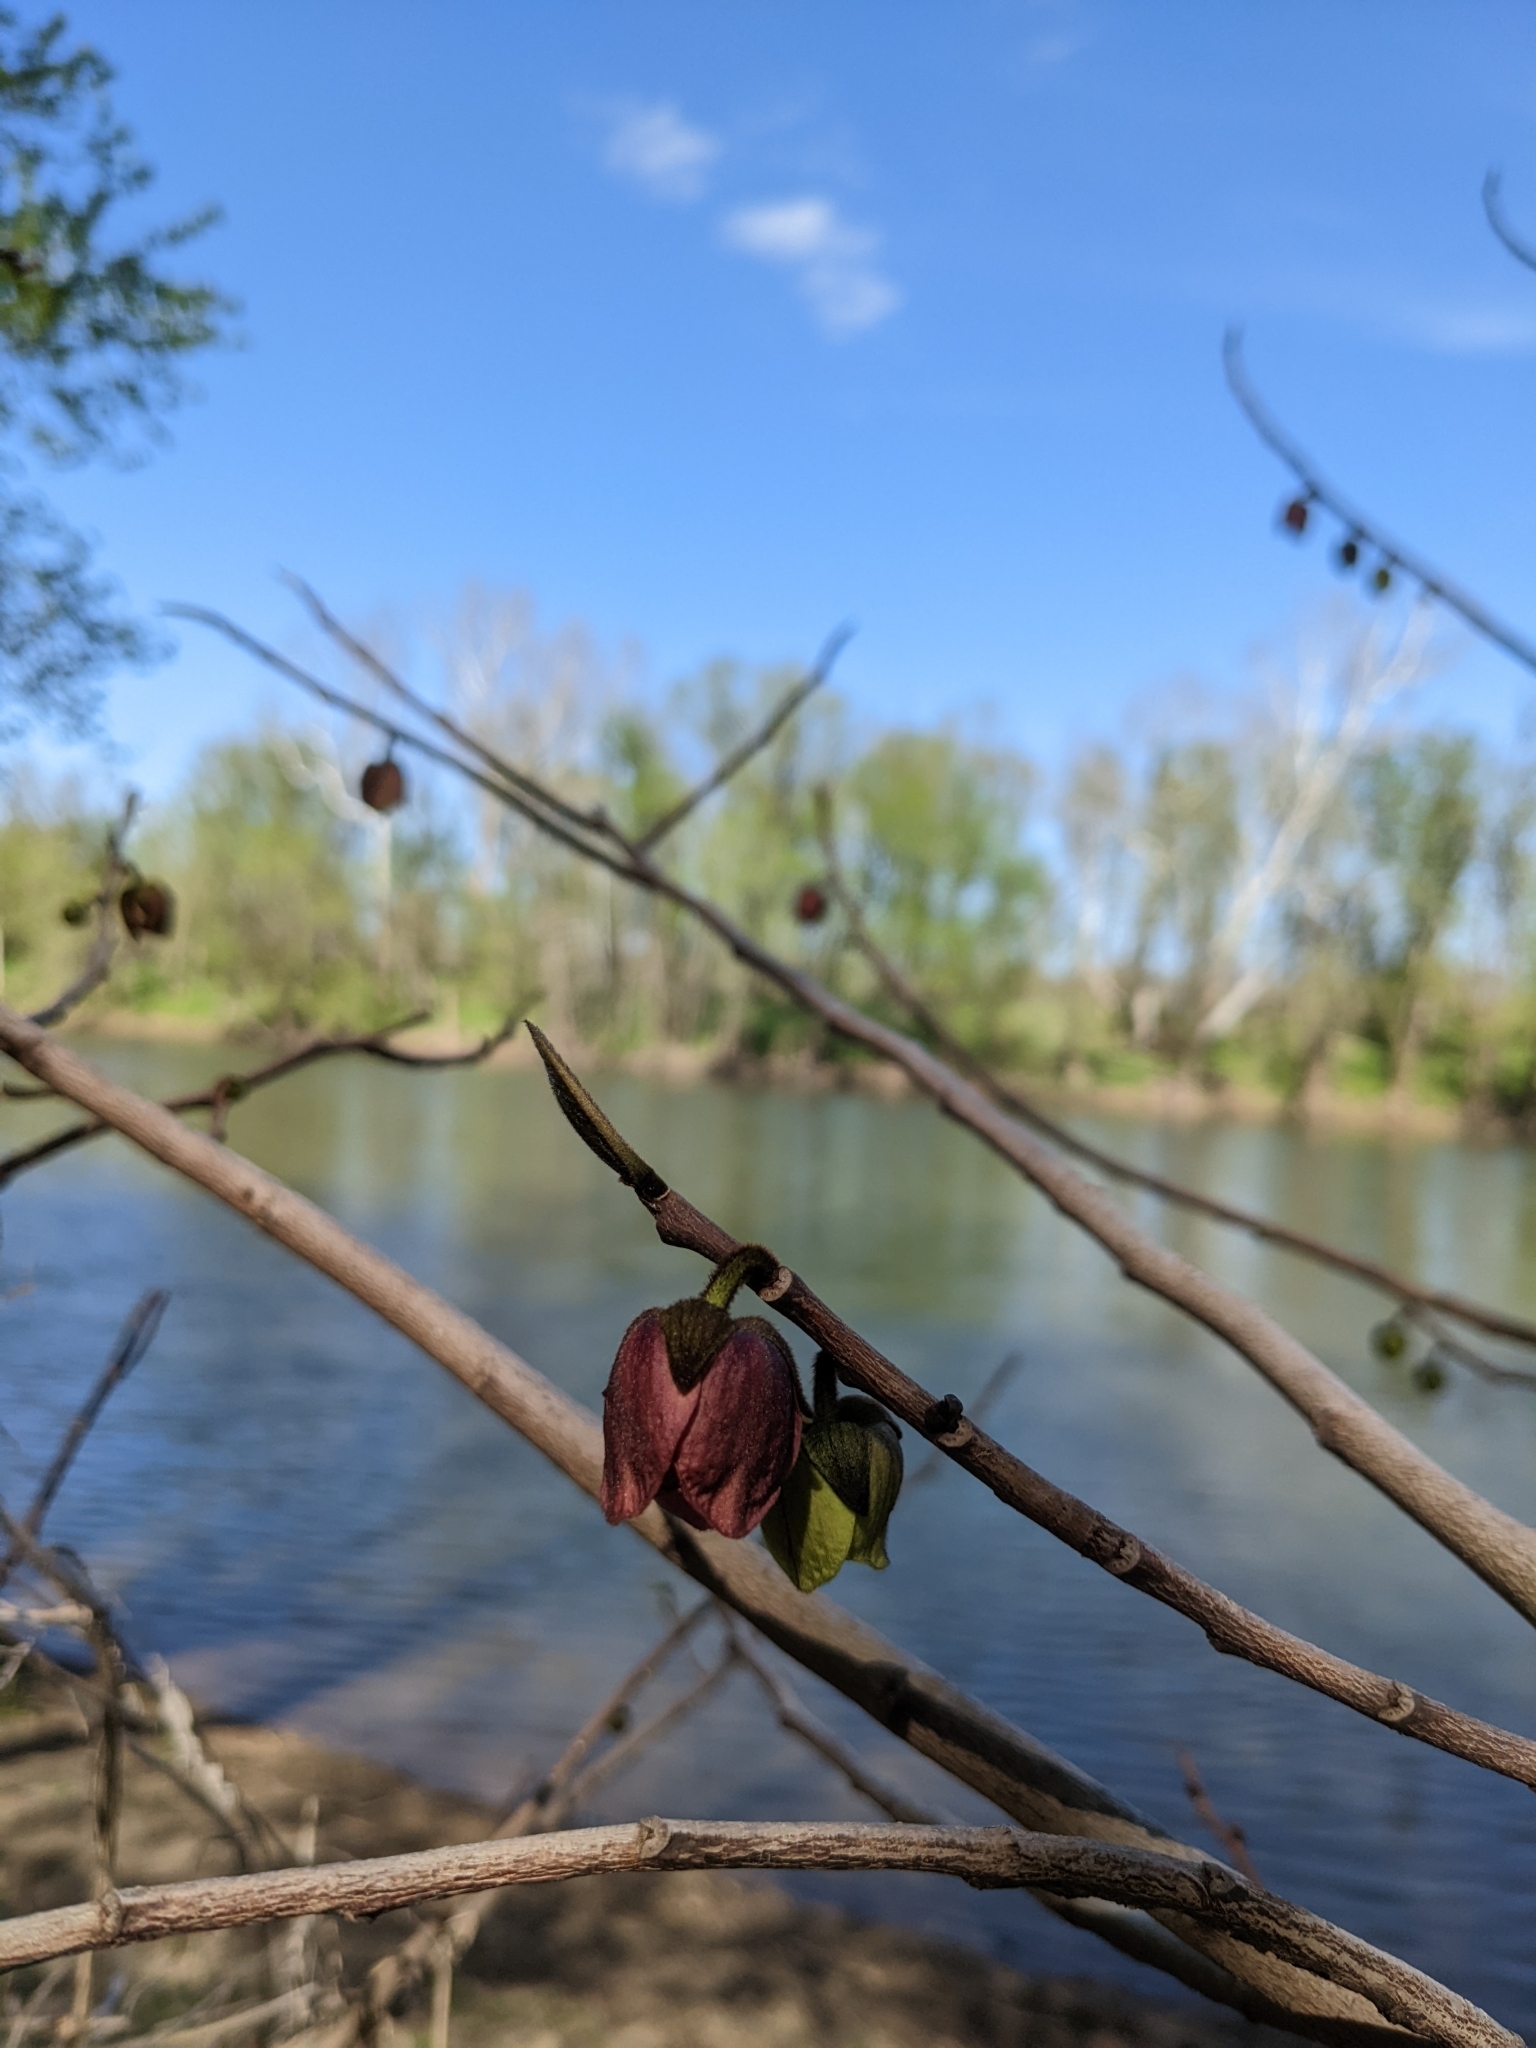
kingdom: Plantae
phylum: Tracheophyta
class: Magnoliopsida
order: Magnoliales
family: Annonaceae
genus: Asimina
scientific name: Asimina triloba
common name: Dog-banana
